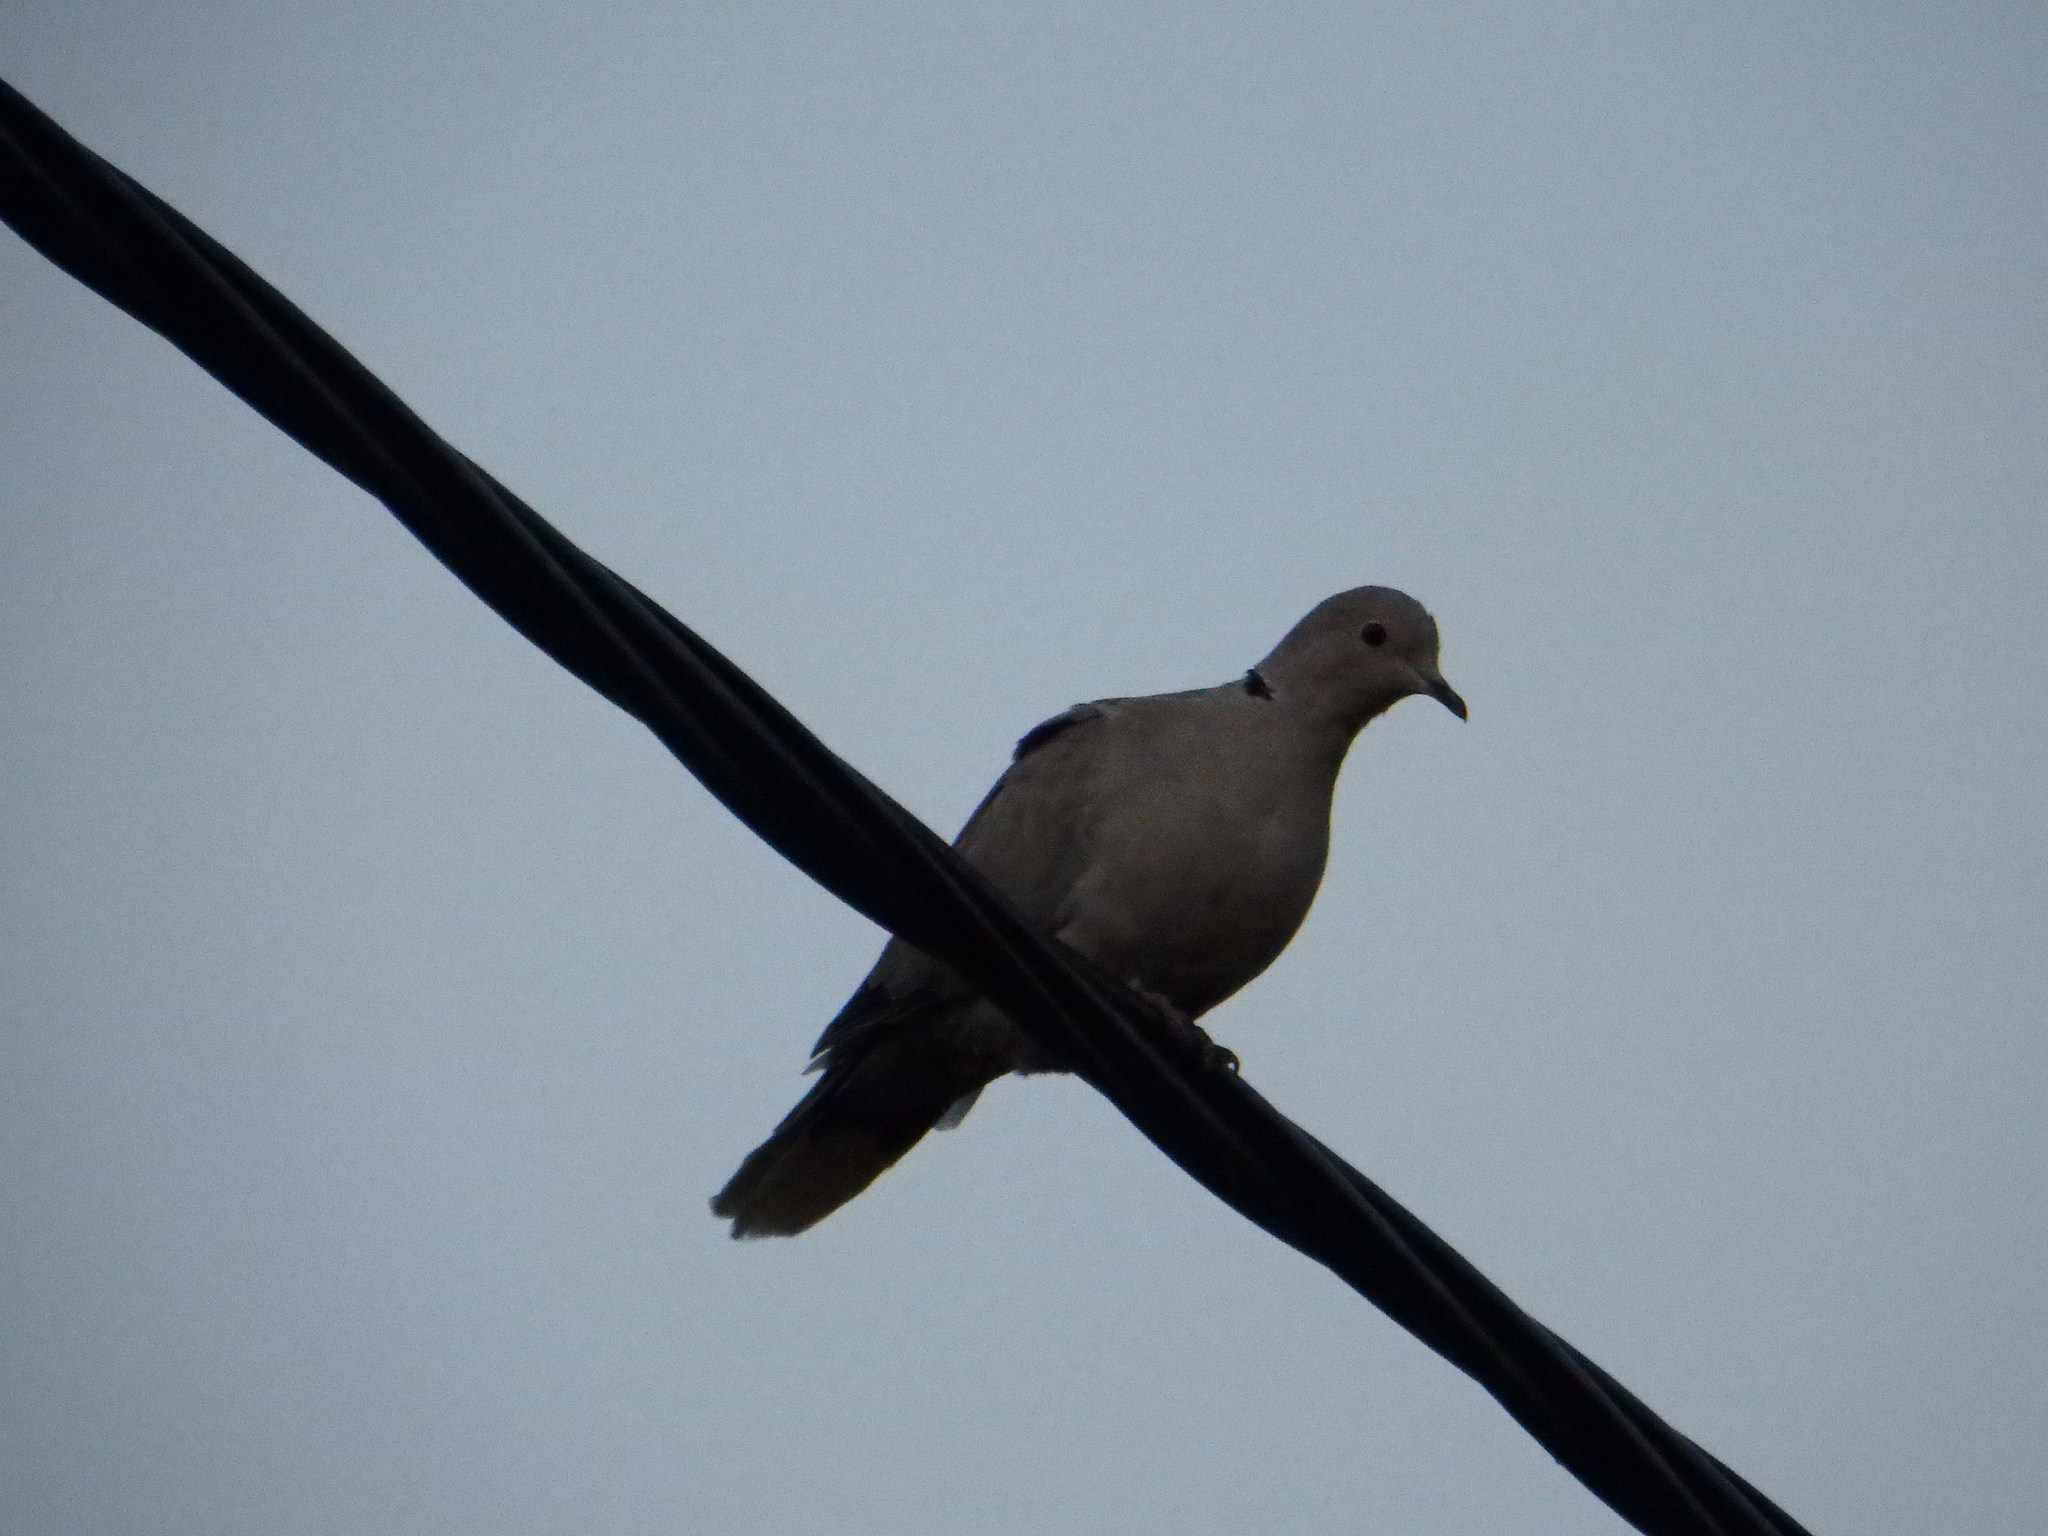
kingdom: Animalia
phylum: Chordata
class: Aves
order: Columbiformes
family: Columbidae
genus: Streptopelia
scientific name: Streptopelia decaocto
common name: Eurasian collared dove
